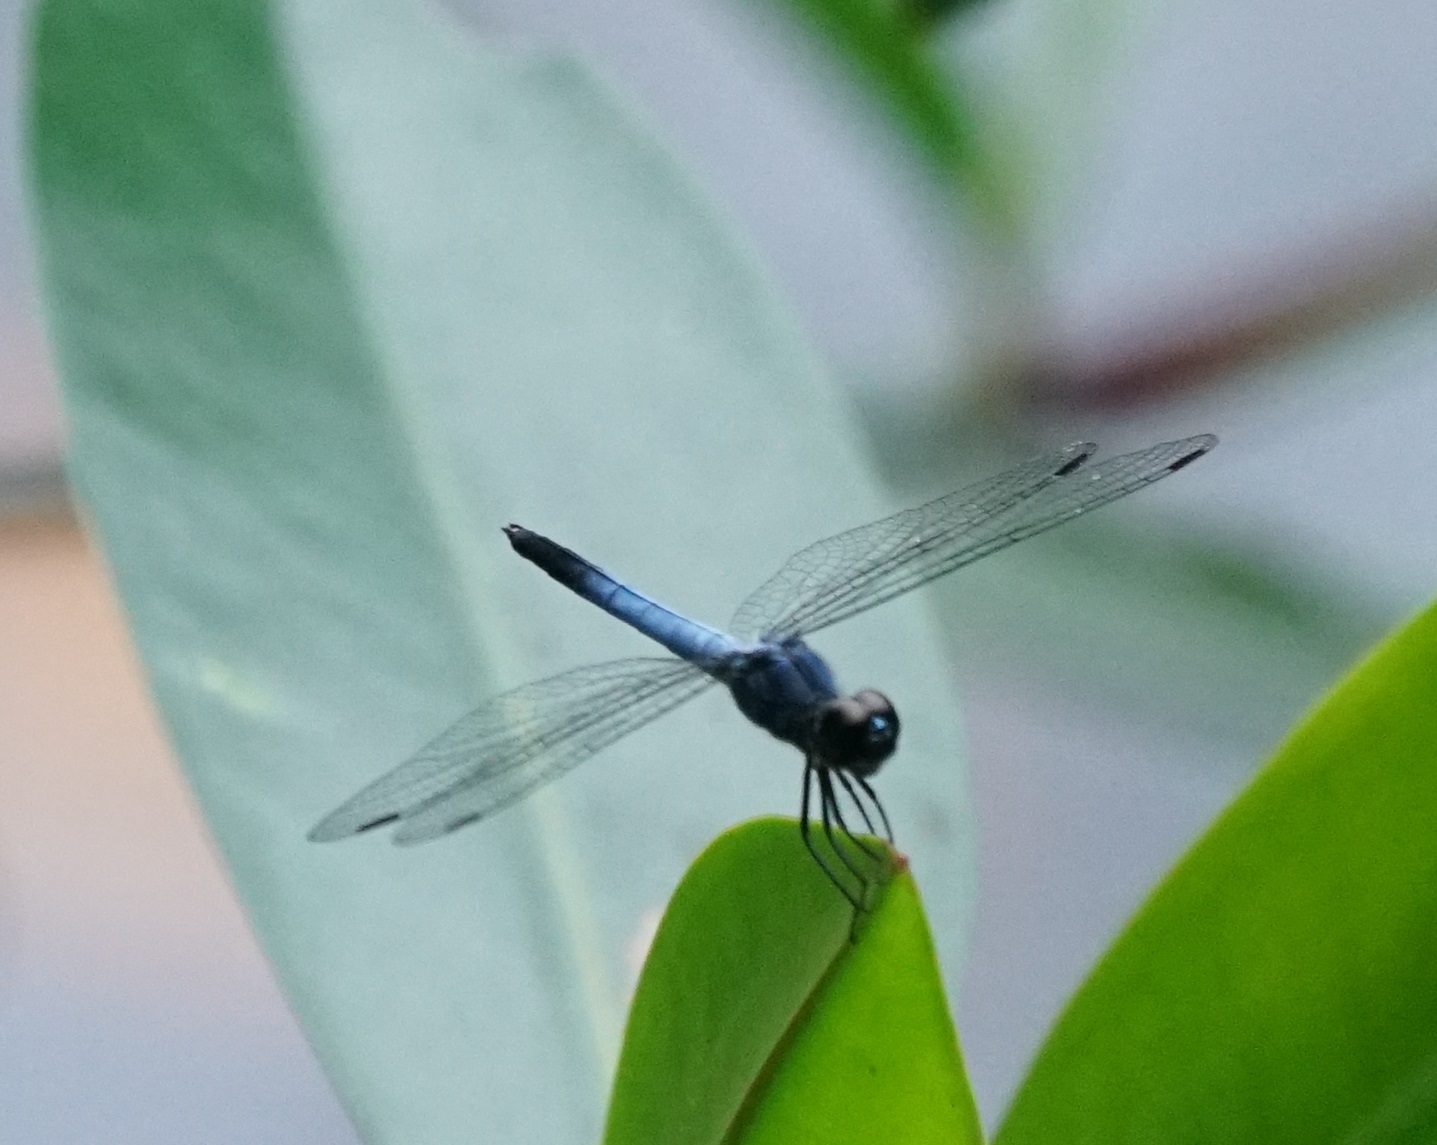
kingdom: Animalia
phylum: Arthropoda
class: Insecta
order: Odonata
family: Libellulidae
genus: Raphismia
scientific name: Raphismia bispina
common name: Mangrove dwarf
